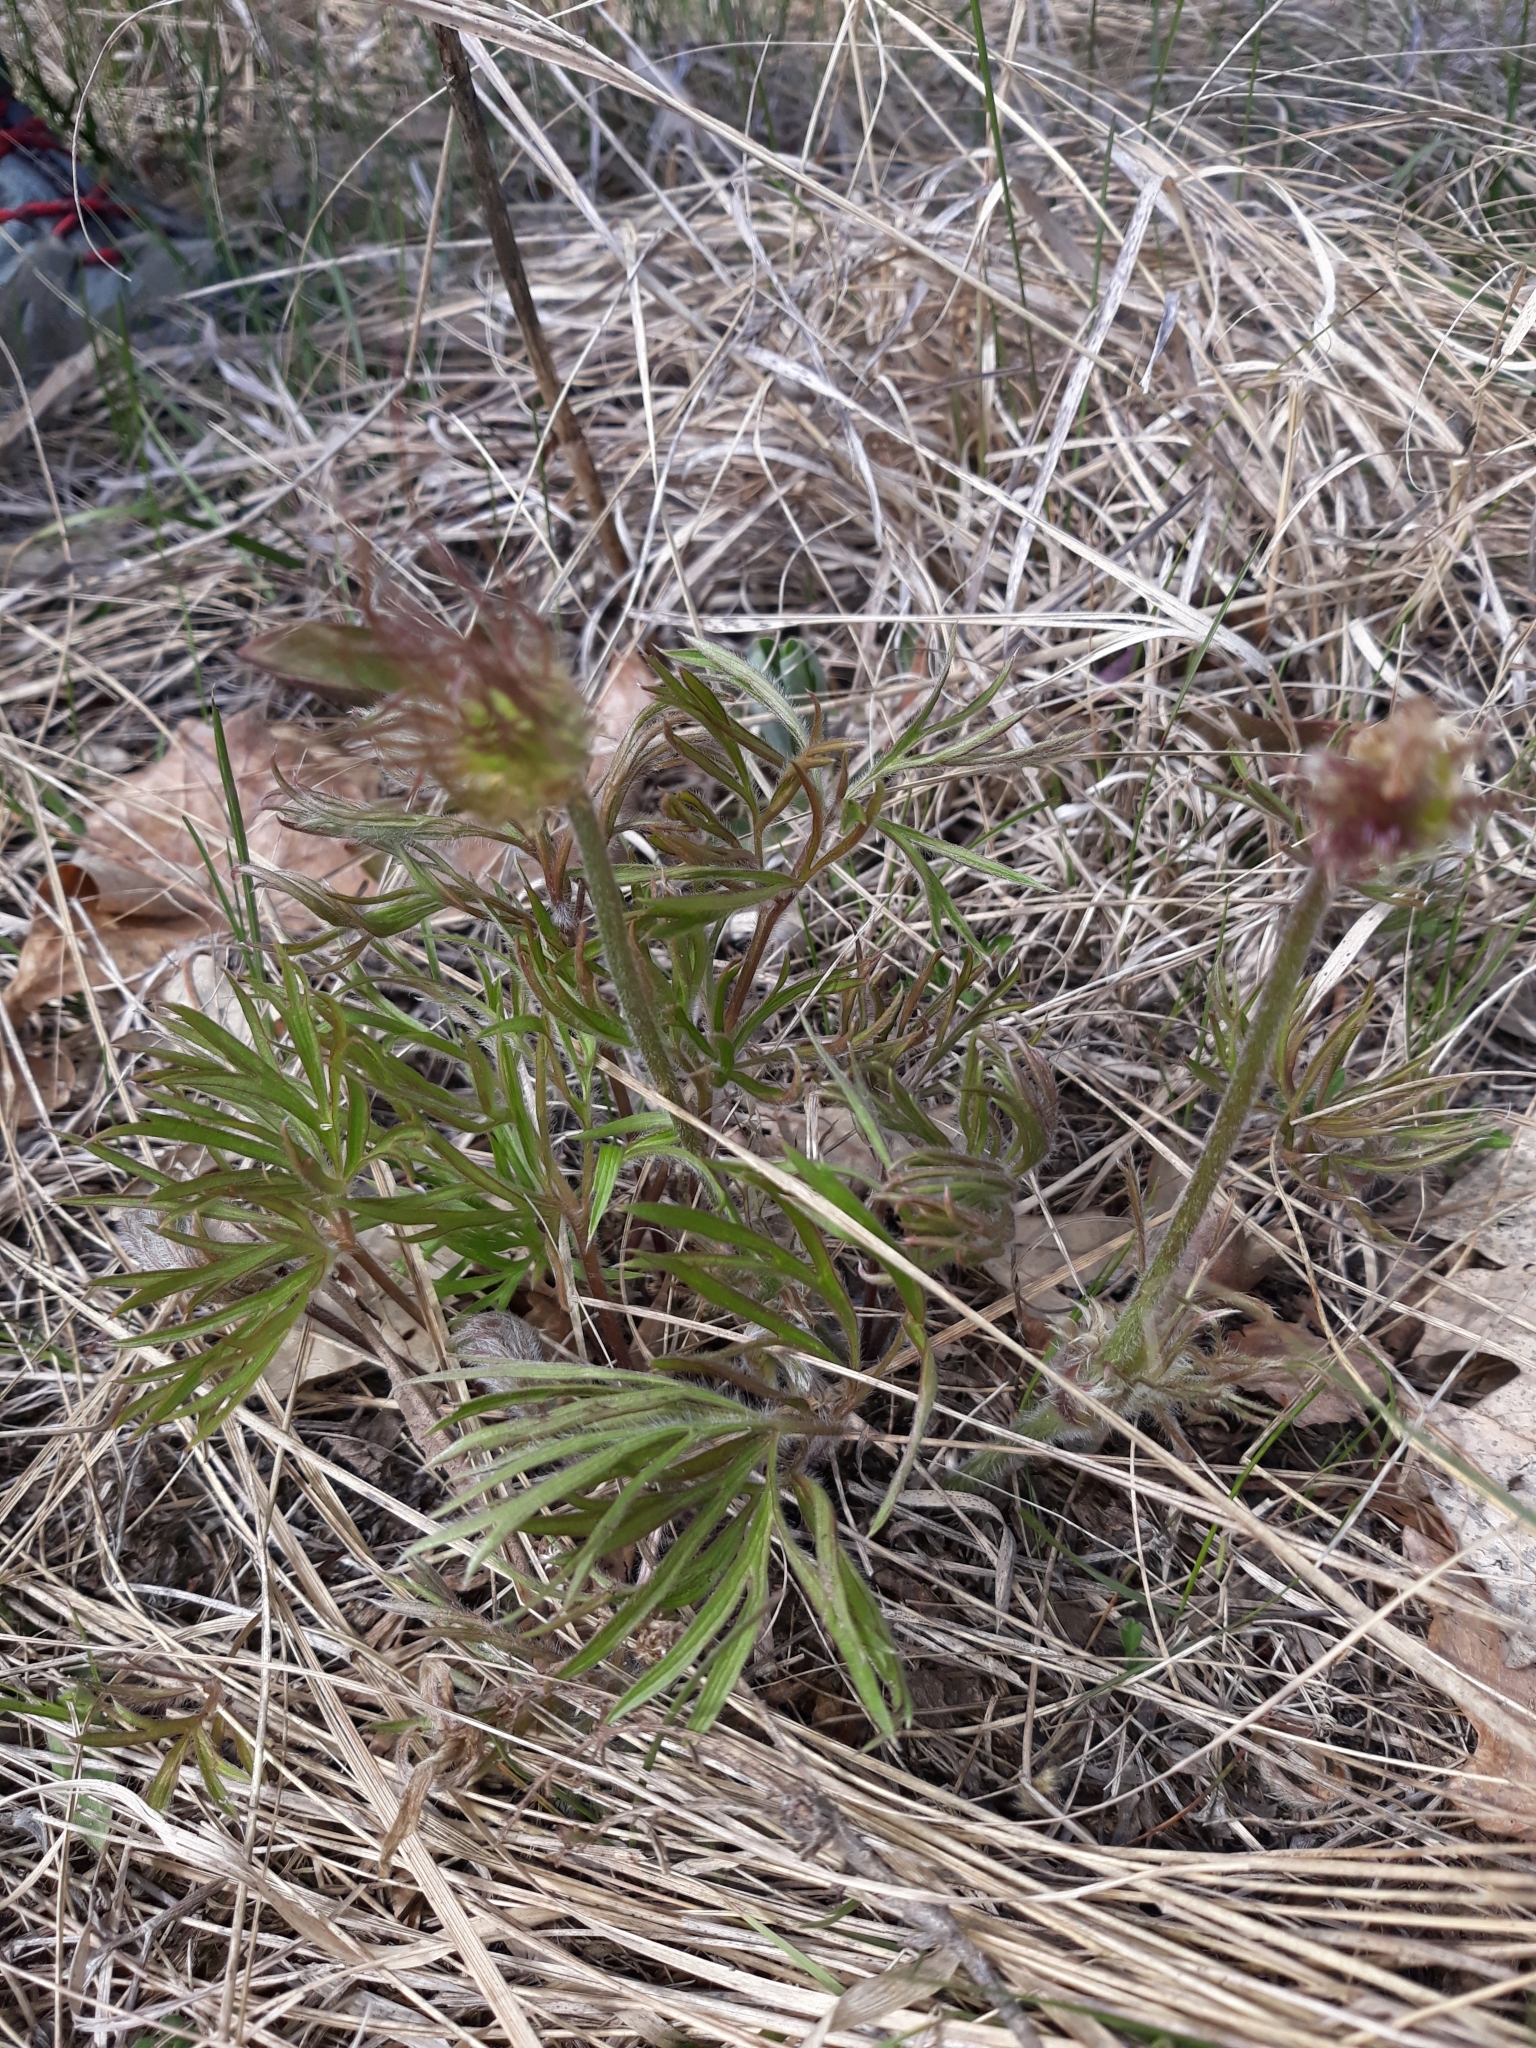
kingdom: Plantae
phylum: Tracheophyta
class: Magnoliopsida
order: Ranunculales
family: Ranunculaceae
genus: Pulsatilla
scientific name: Pulsatilla nuttalliana
